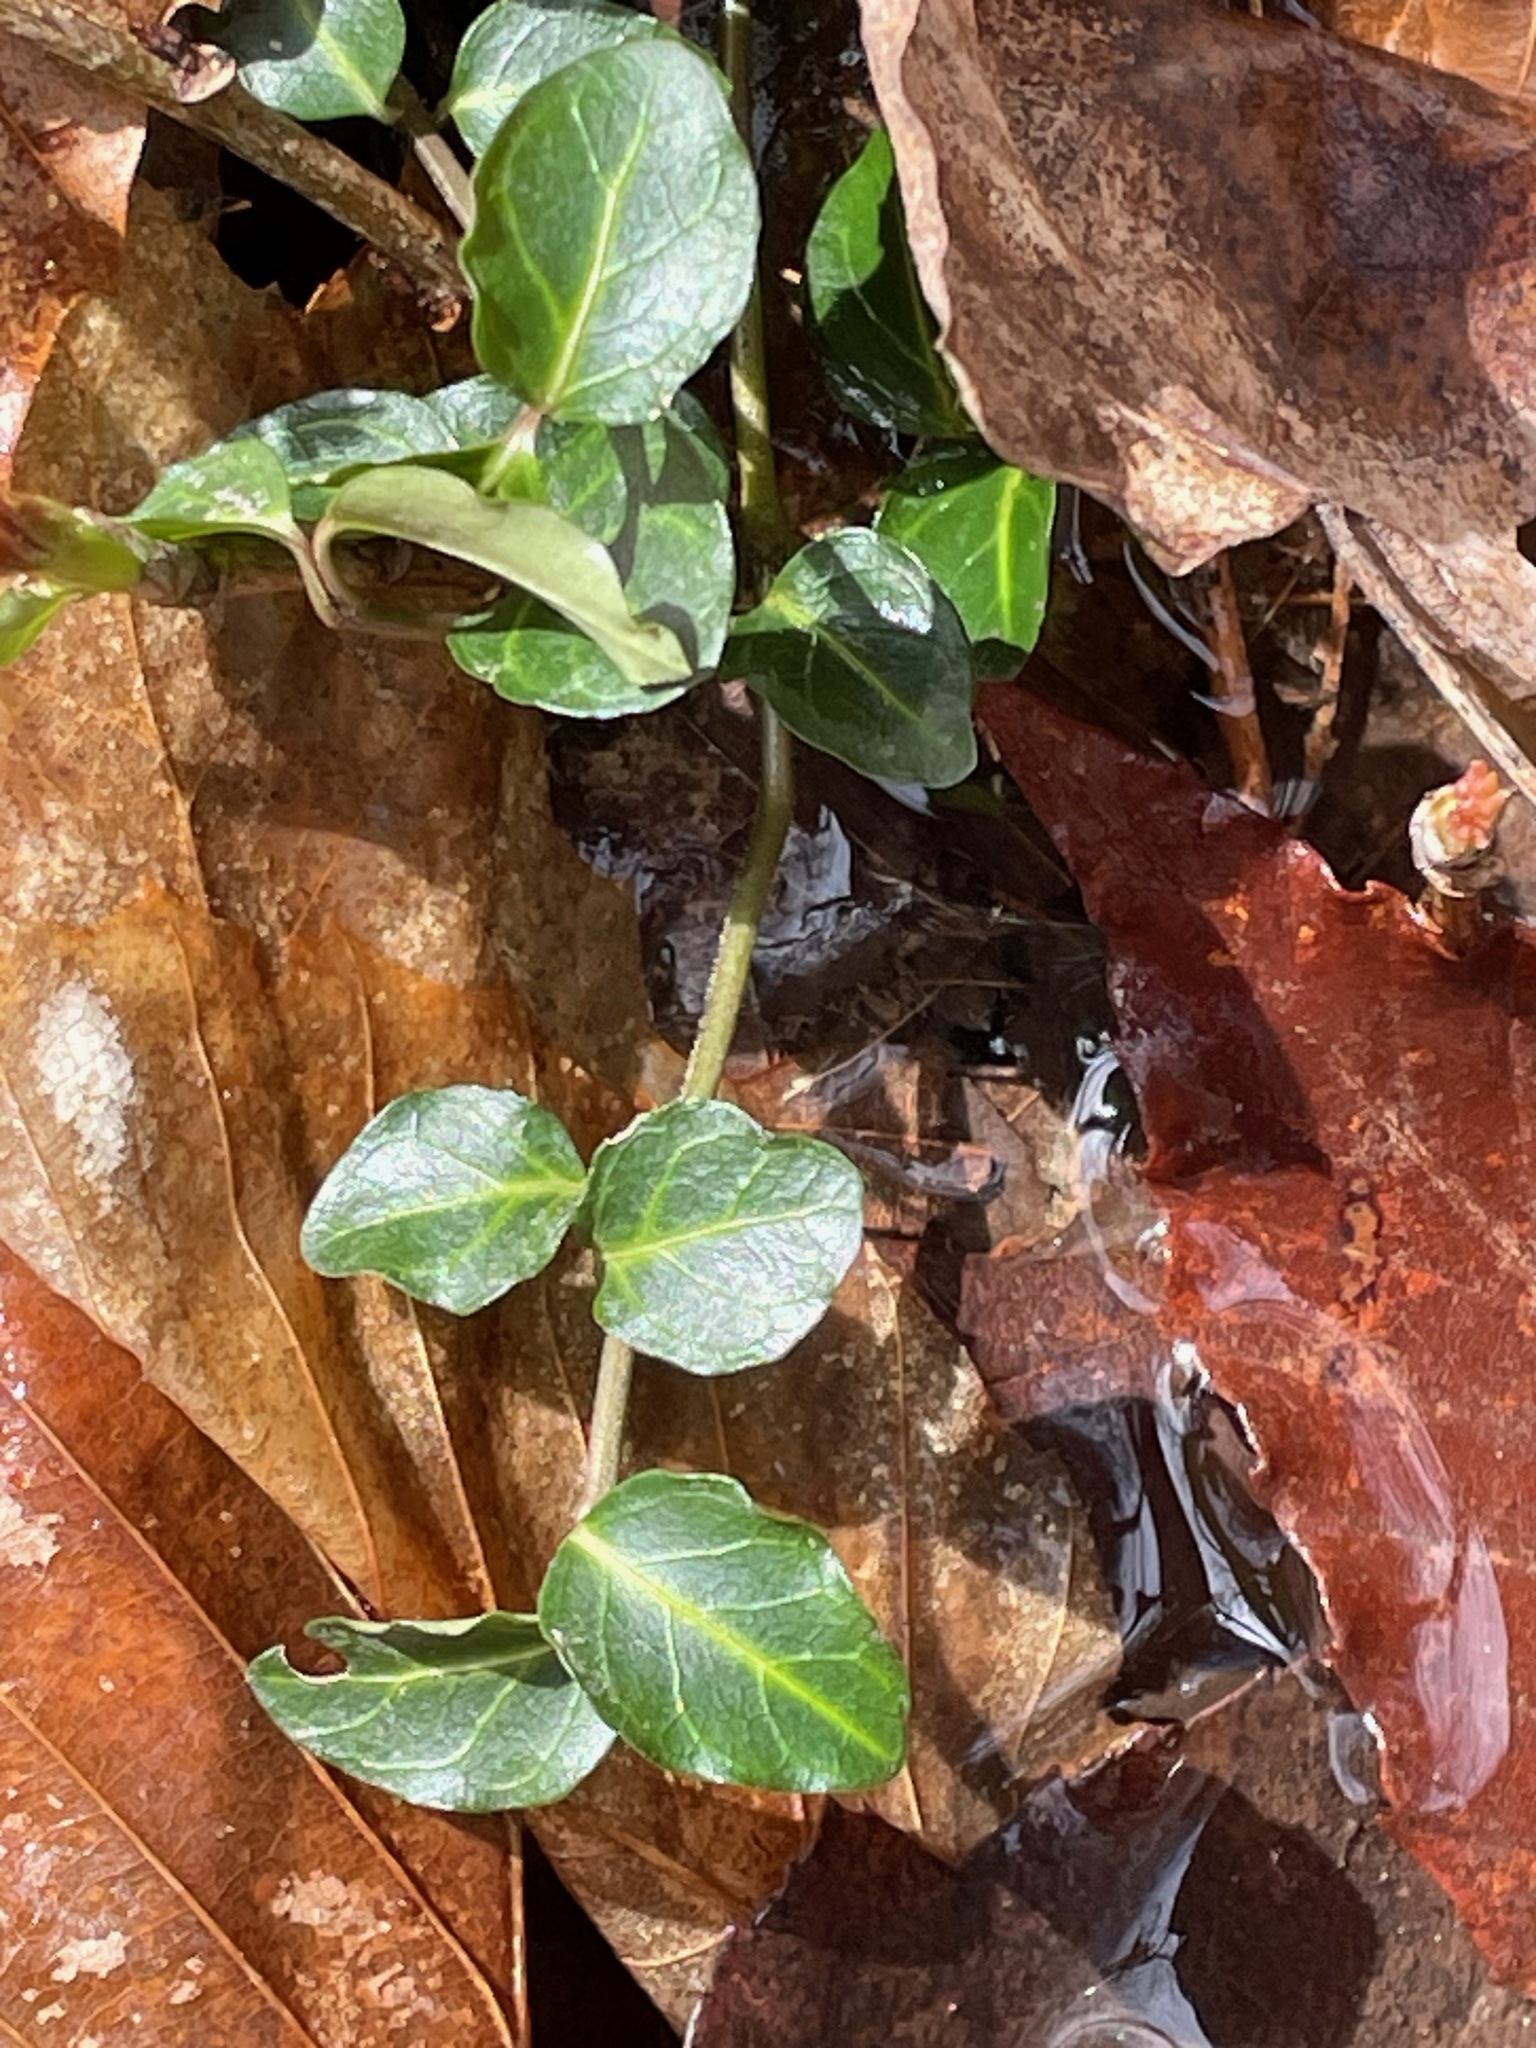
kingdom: Plantae
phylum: Tracheophyta
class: Magnoliopsida
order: Gentianales
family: Rubiaceae
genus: Mitchella
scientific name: Mitchella repens
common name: Partridge-berry
